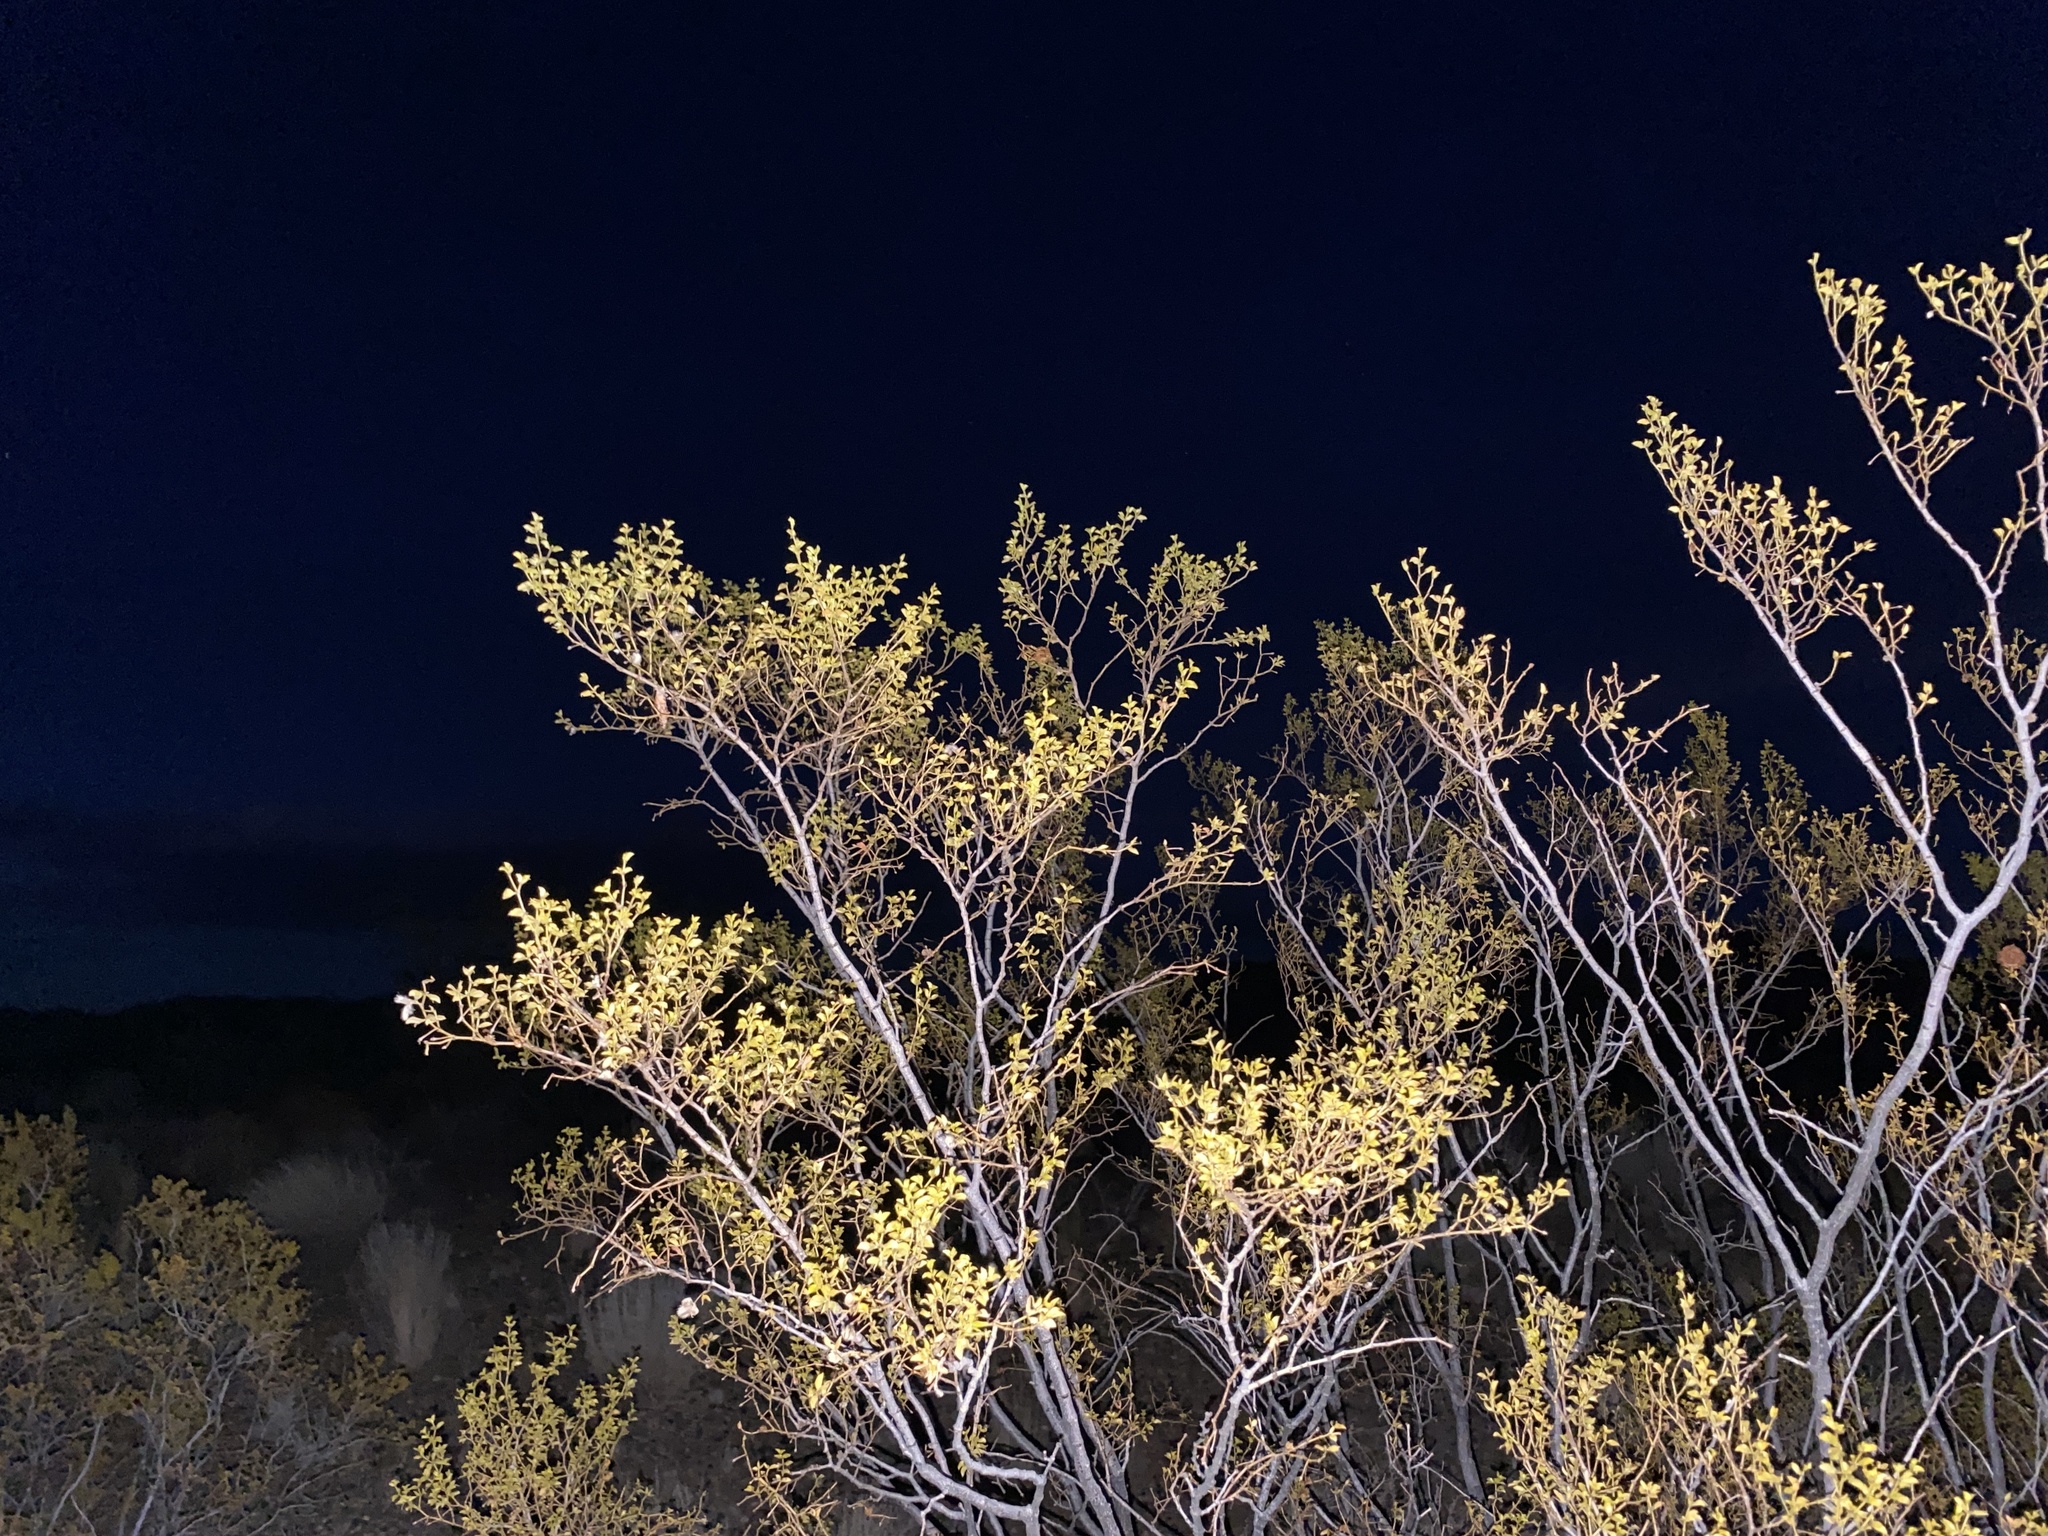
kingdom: Plantae
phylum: Tracheophyta
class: Magnoliopsida
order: Zygophyllales
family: Zygophyllaceae
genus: Larrea
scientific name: Larrea tridentata
